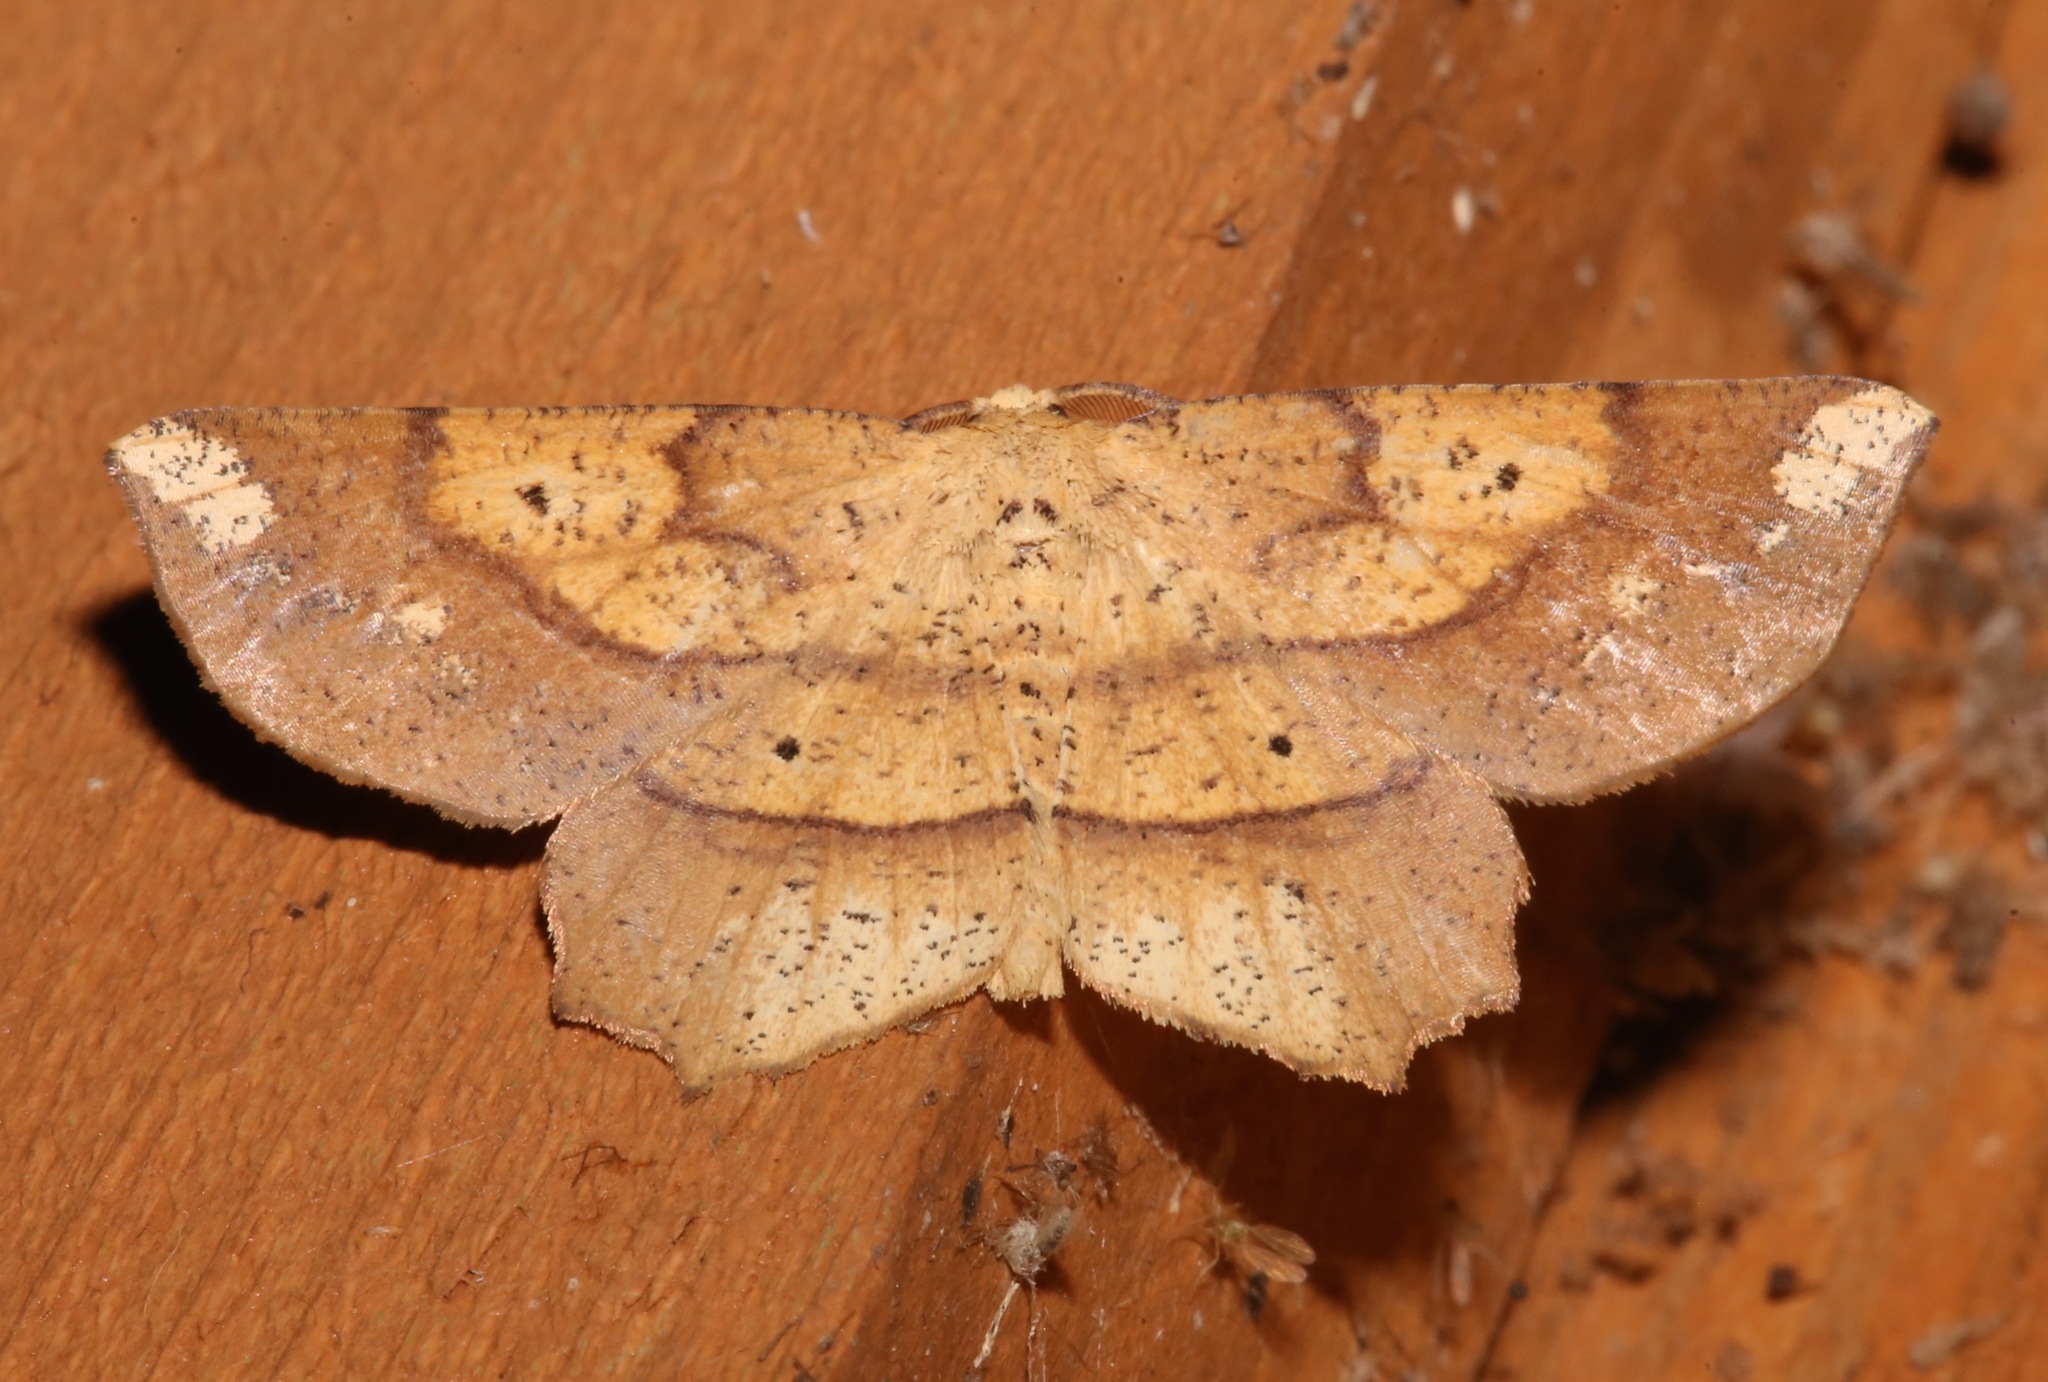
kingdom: Animalia
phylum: Arthropoda
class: Insecta
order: Lepidoptera
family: Geometridae
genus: Euchlaena
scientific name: Euchlaena amoenaria
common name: Deep yellow euchlaena
